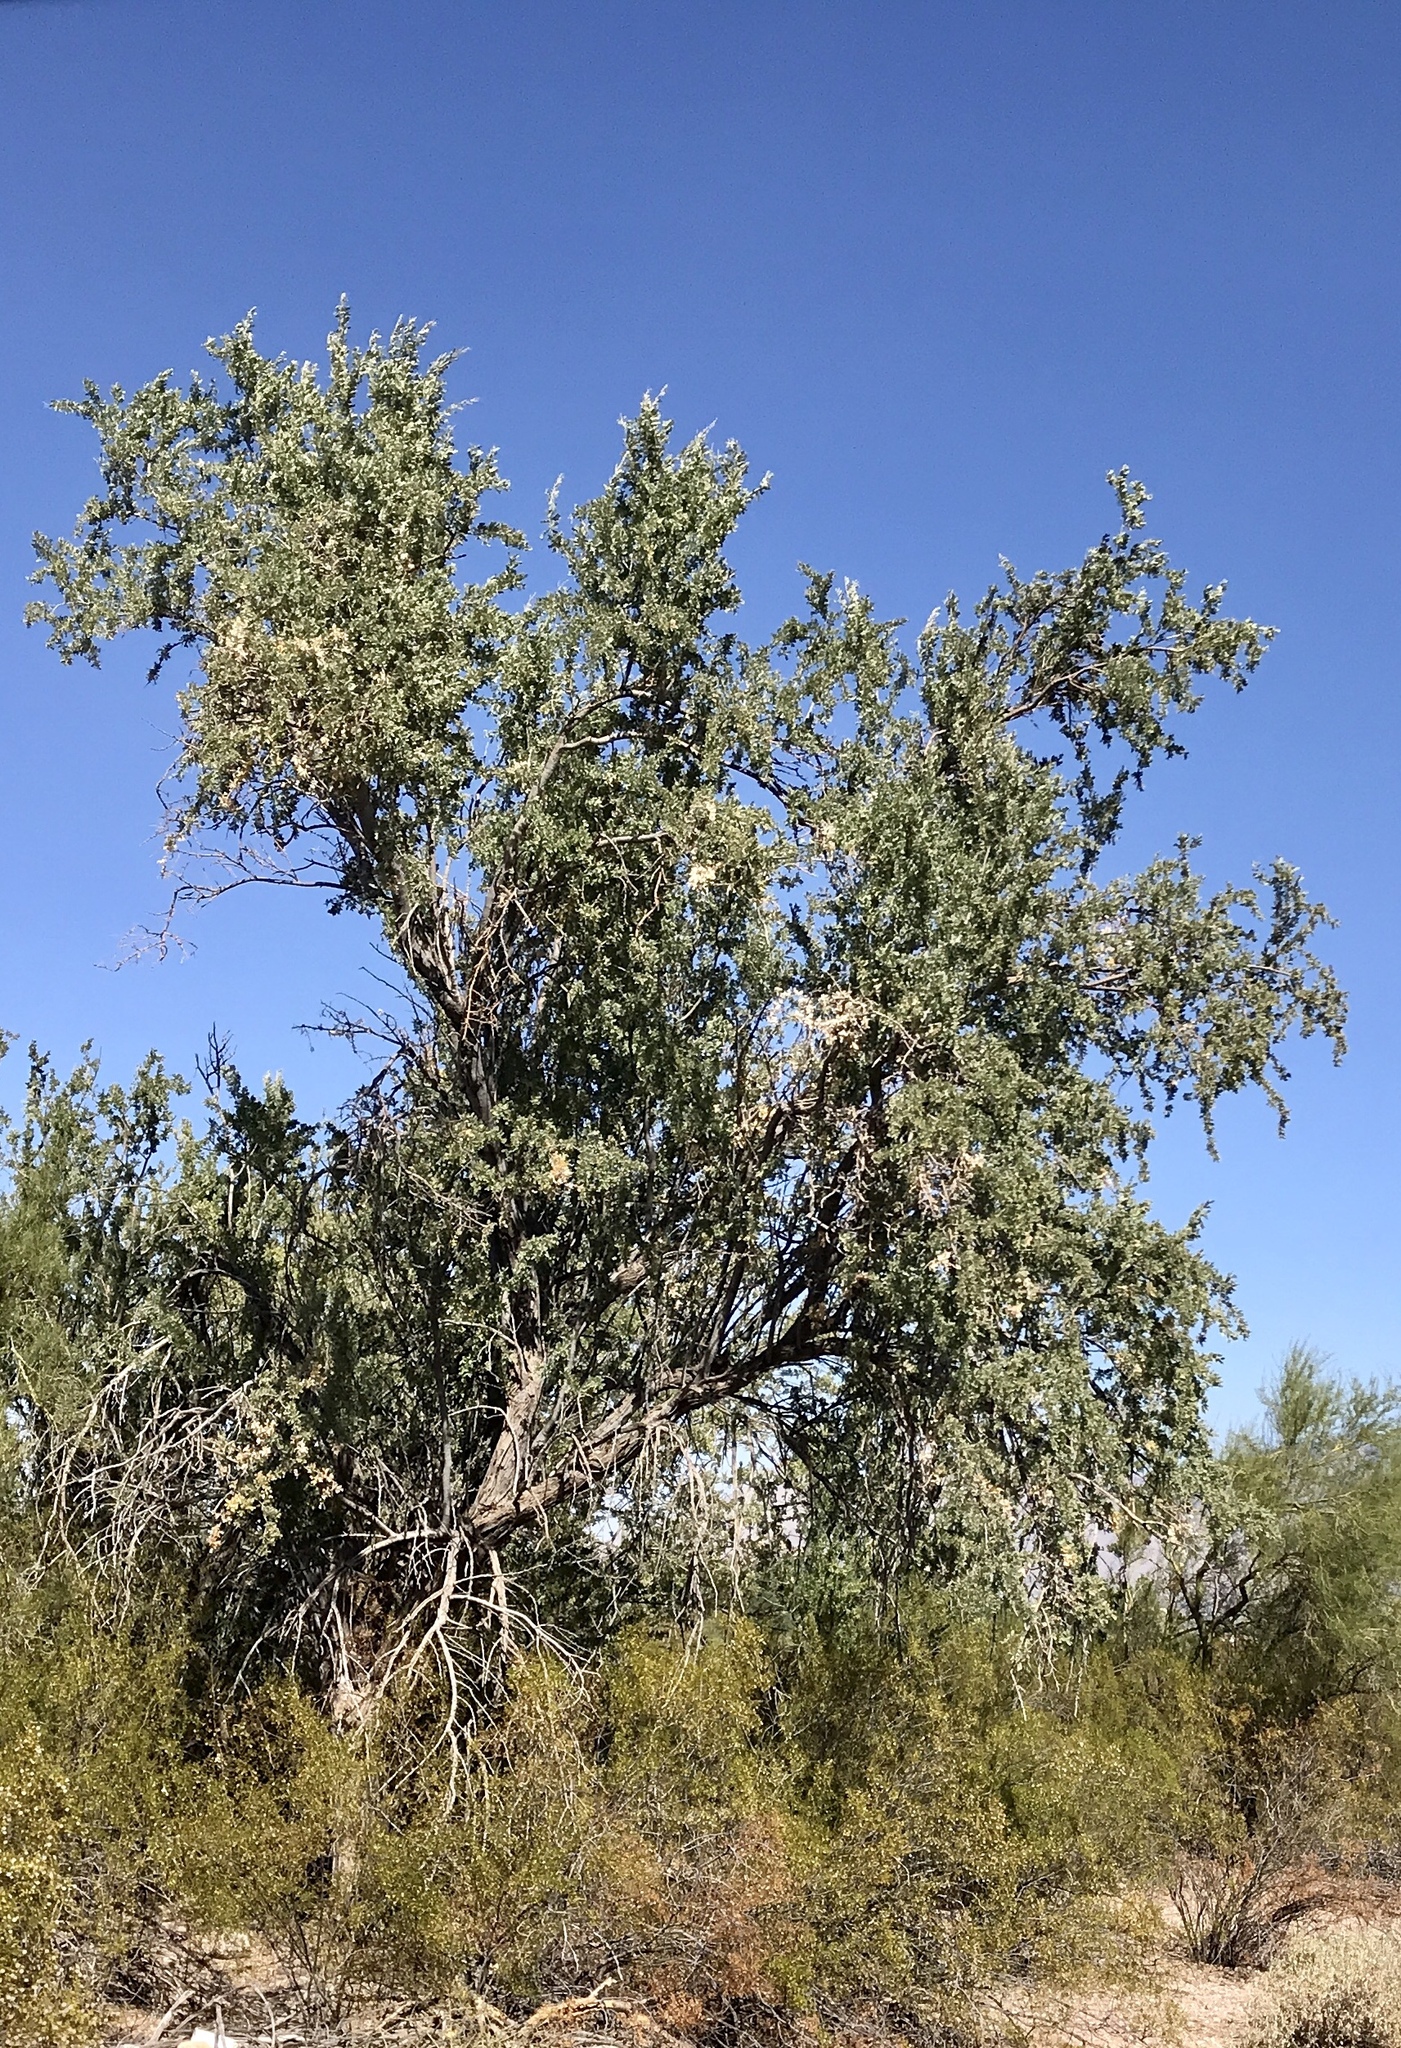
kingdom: Plantae
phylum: Tracheophyta
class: Magnoliopsida
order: Fabales
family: Fabaceae
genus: Olneya
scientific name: Olneya tesota
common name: Desert ironwood
